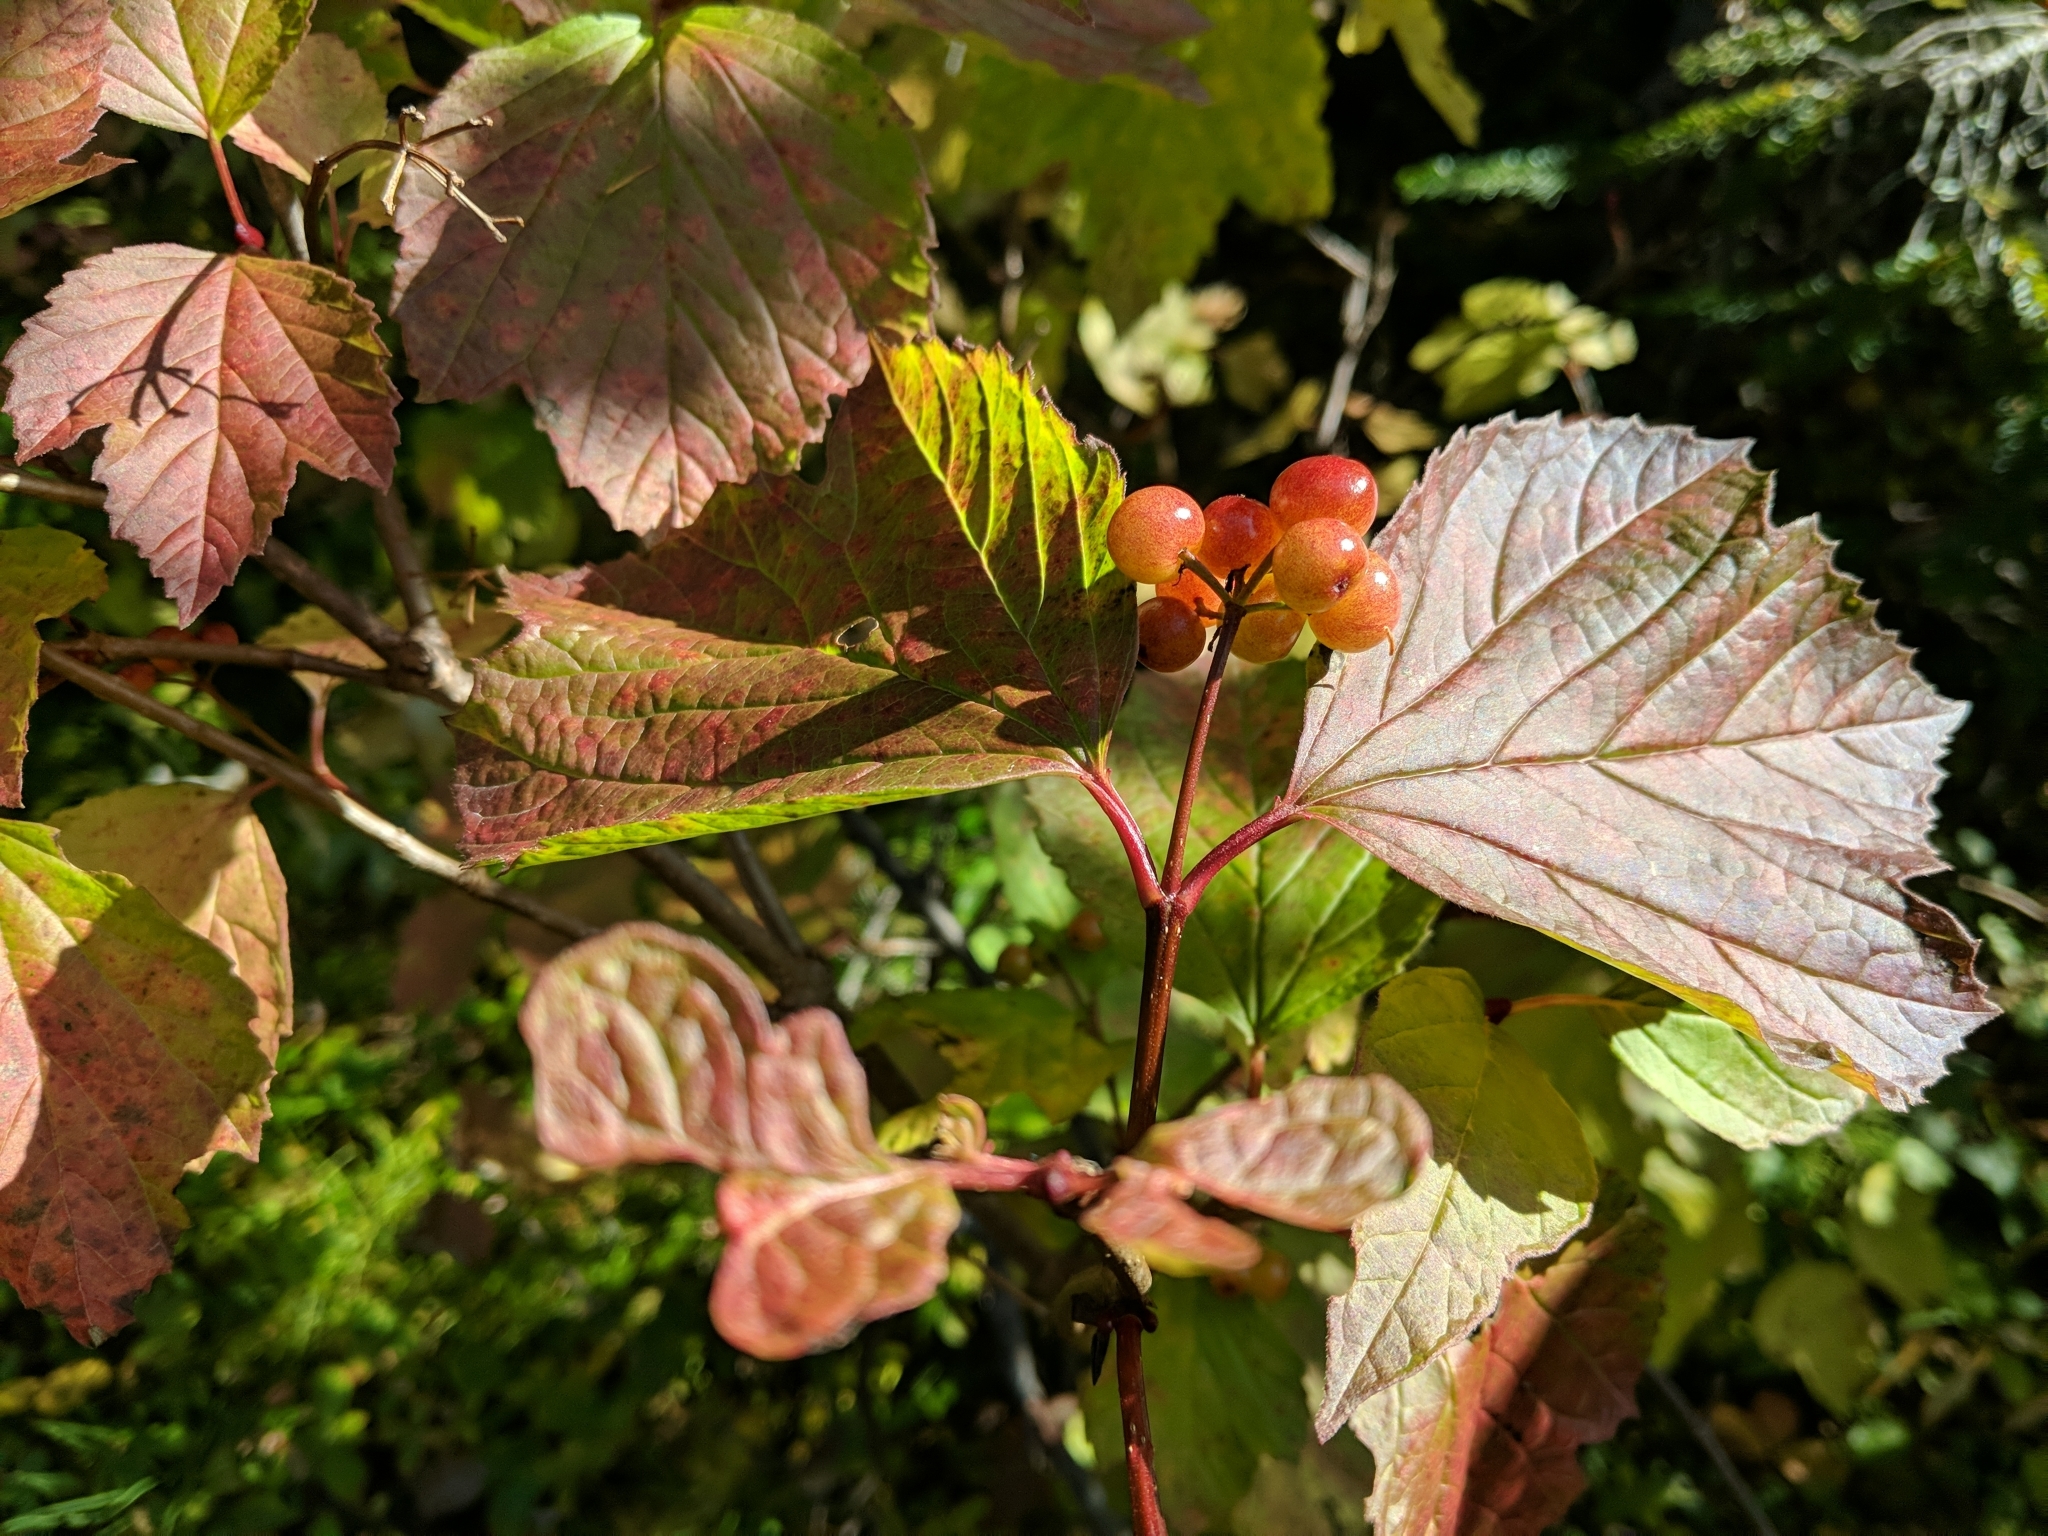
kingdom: Plantae
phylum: Tracheophyta
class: Magnoliopsida
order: Dipsacales
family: Viburnaceae
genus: Viburnum
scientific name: Viburnum edule
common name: Mooseberry
